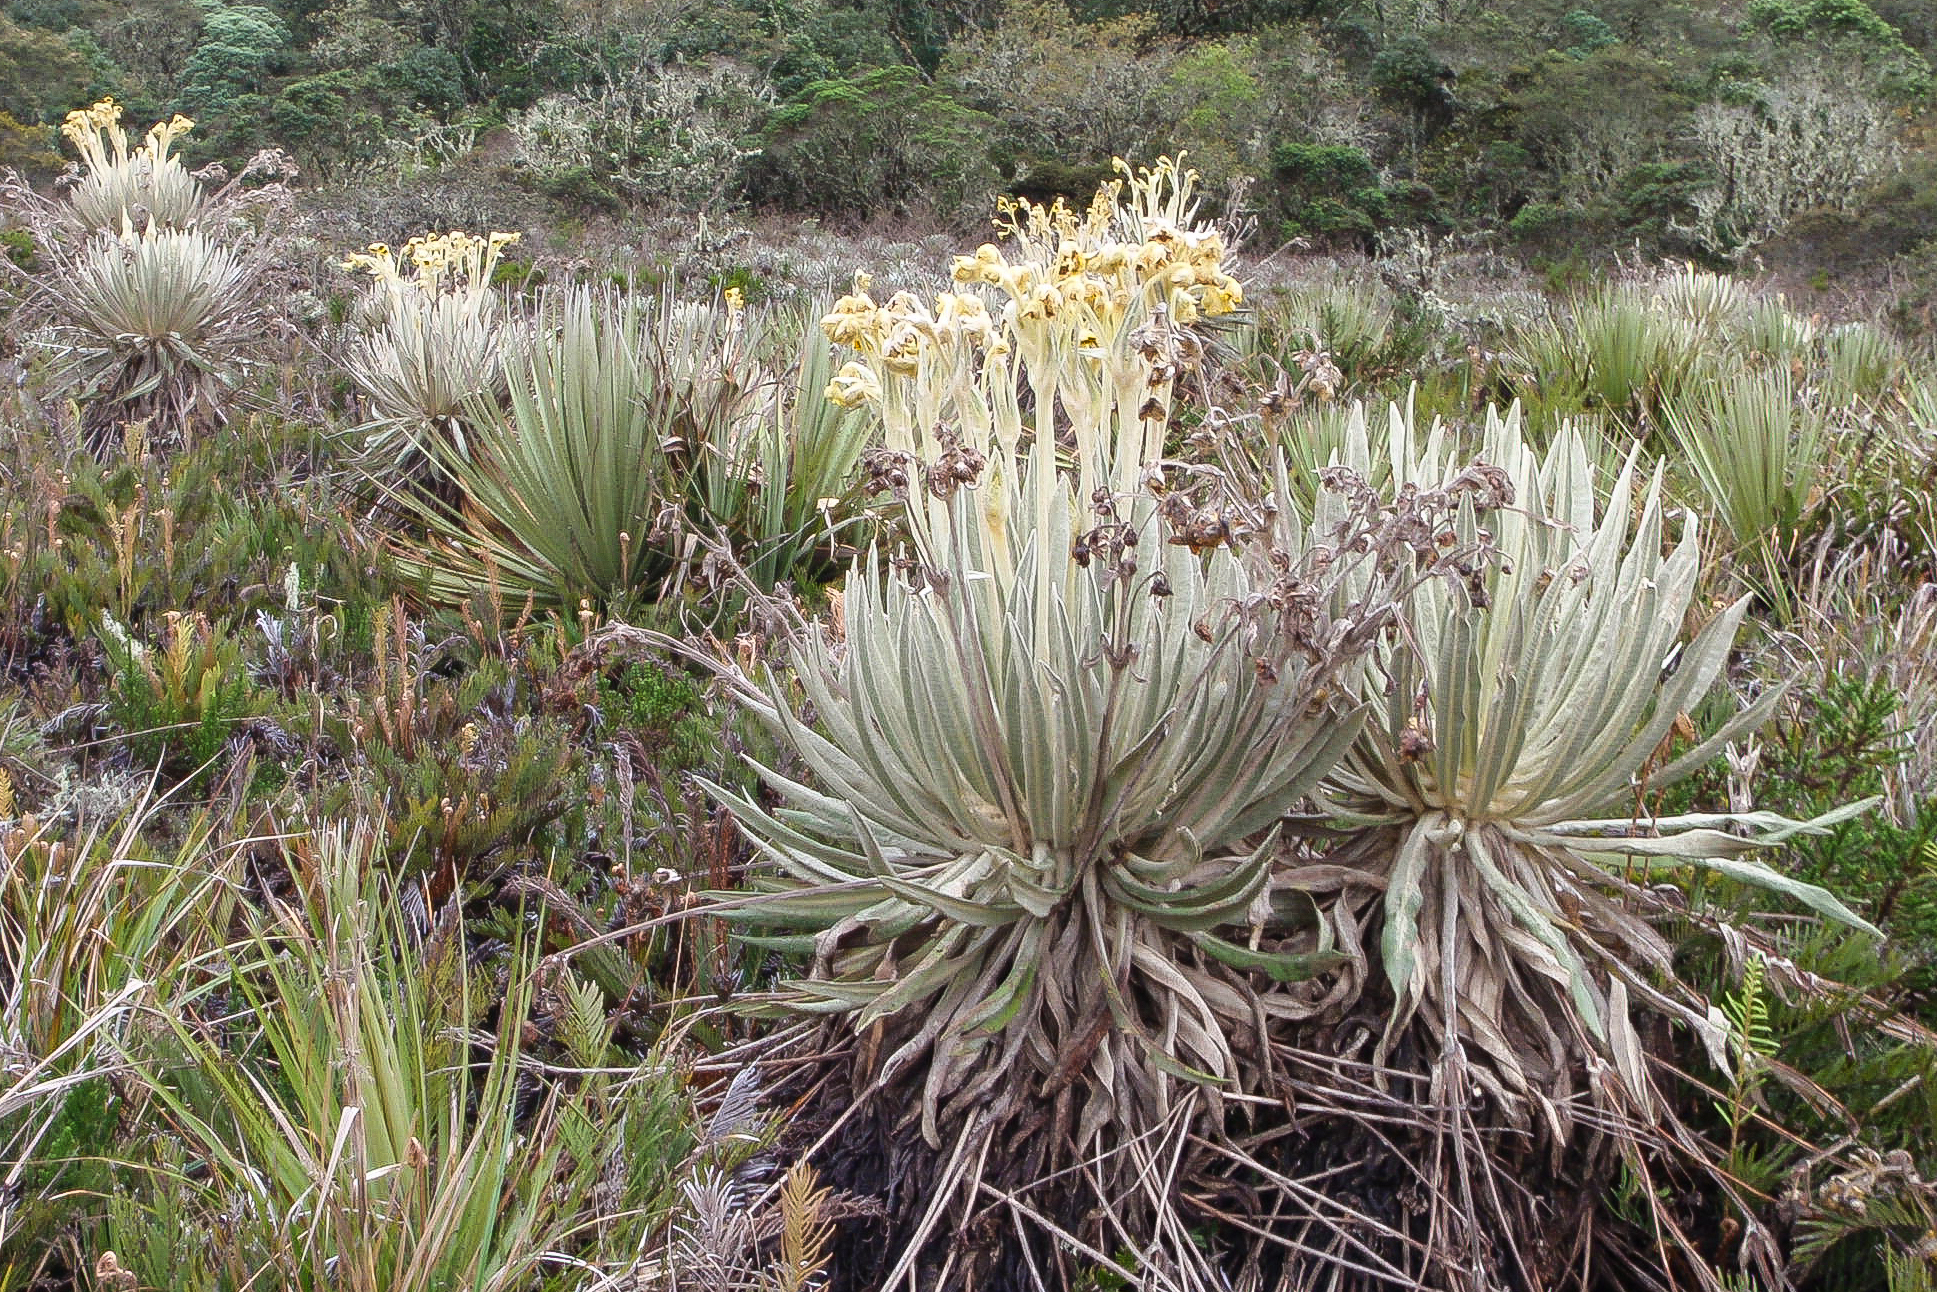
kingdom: Plantae
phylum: Tracheophyta
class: Magnoliopsida
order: Asterales
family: Asteraceae
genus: Espeletia
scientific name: Espeletia killipii
